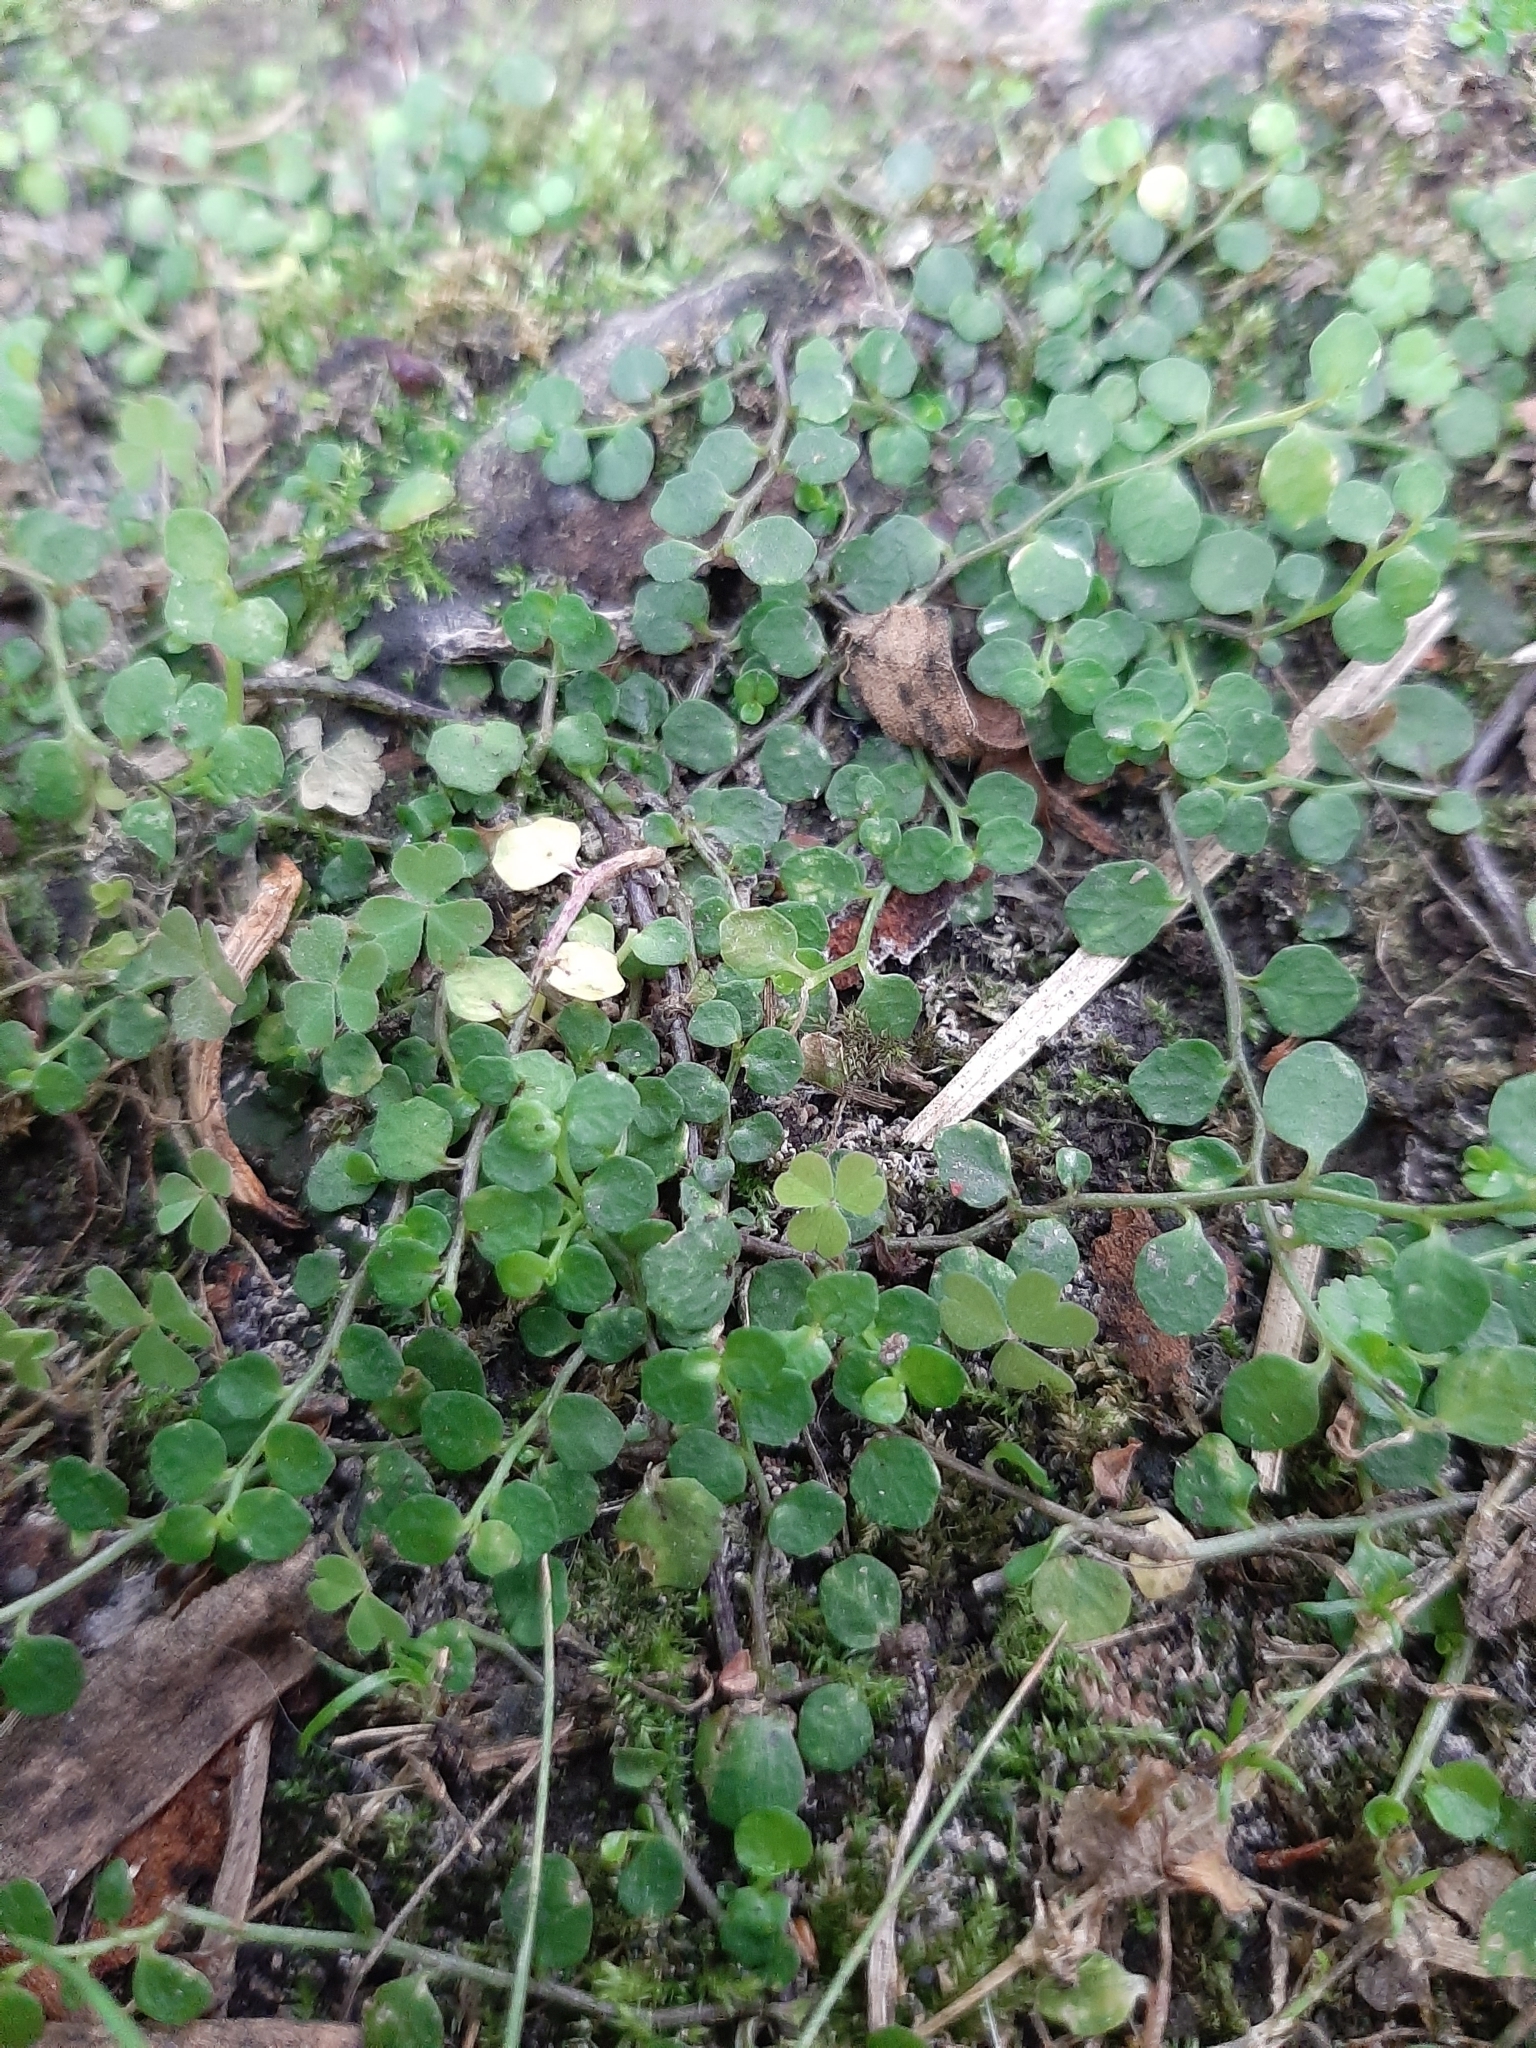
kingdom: Plantae
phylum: Tracheophyta
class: Magnoliopsida
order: Asterales
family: Campanulaceae
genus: Lobelia
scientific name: Lobelia angulata
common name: Lawn lobelia
